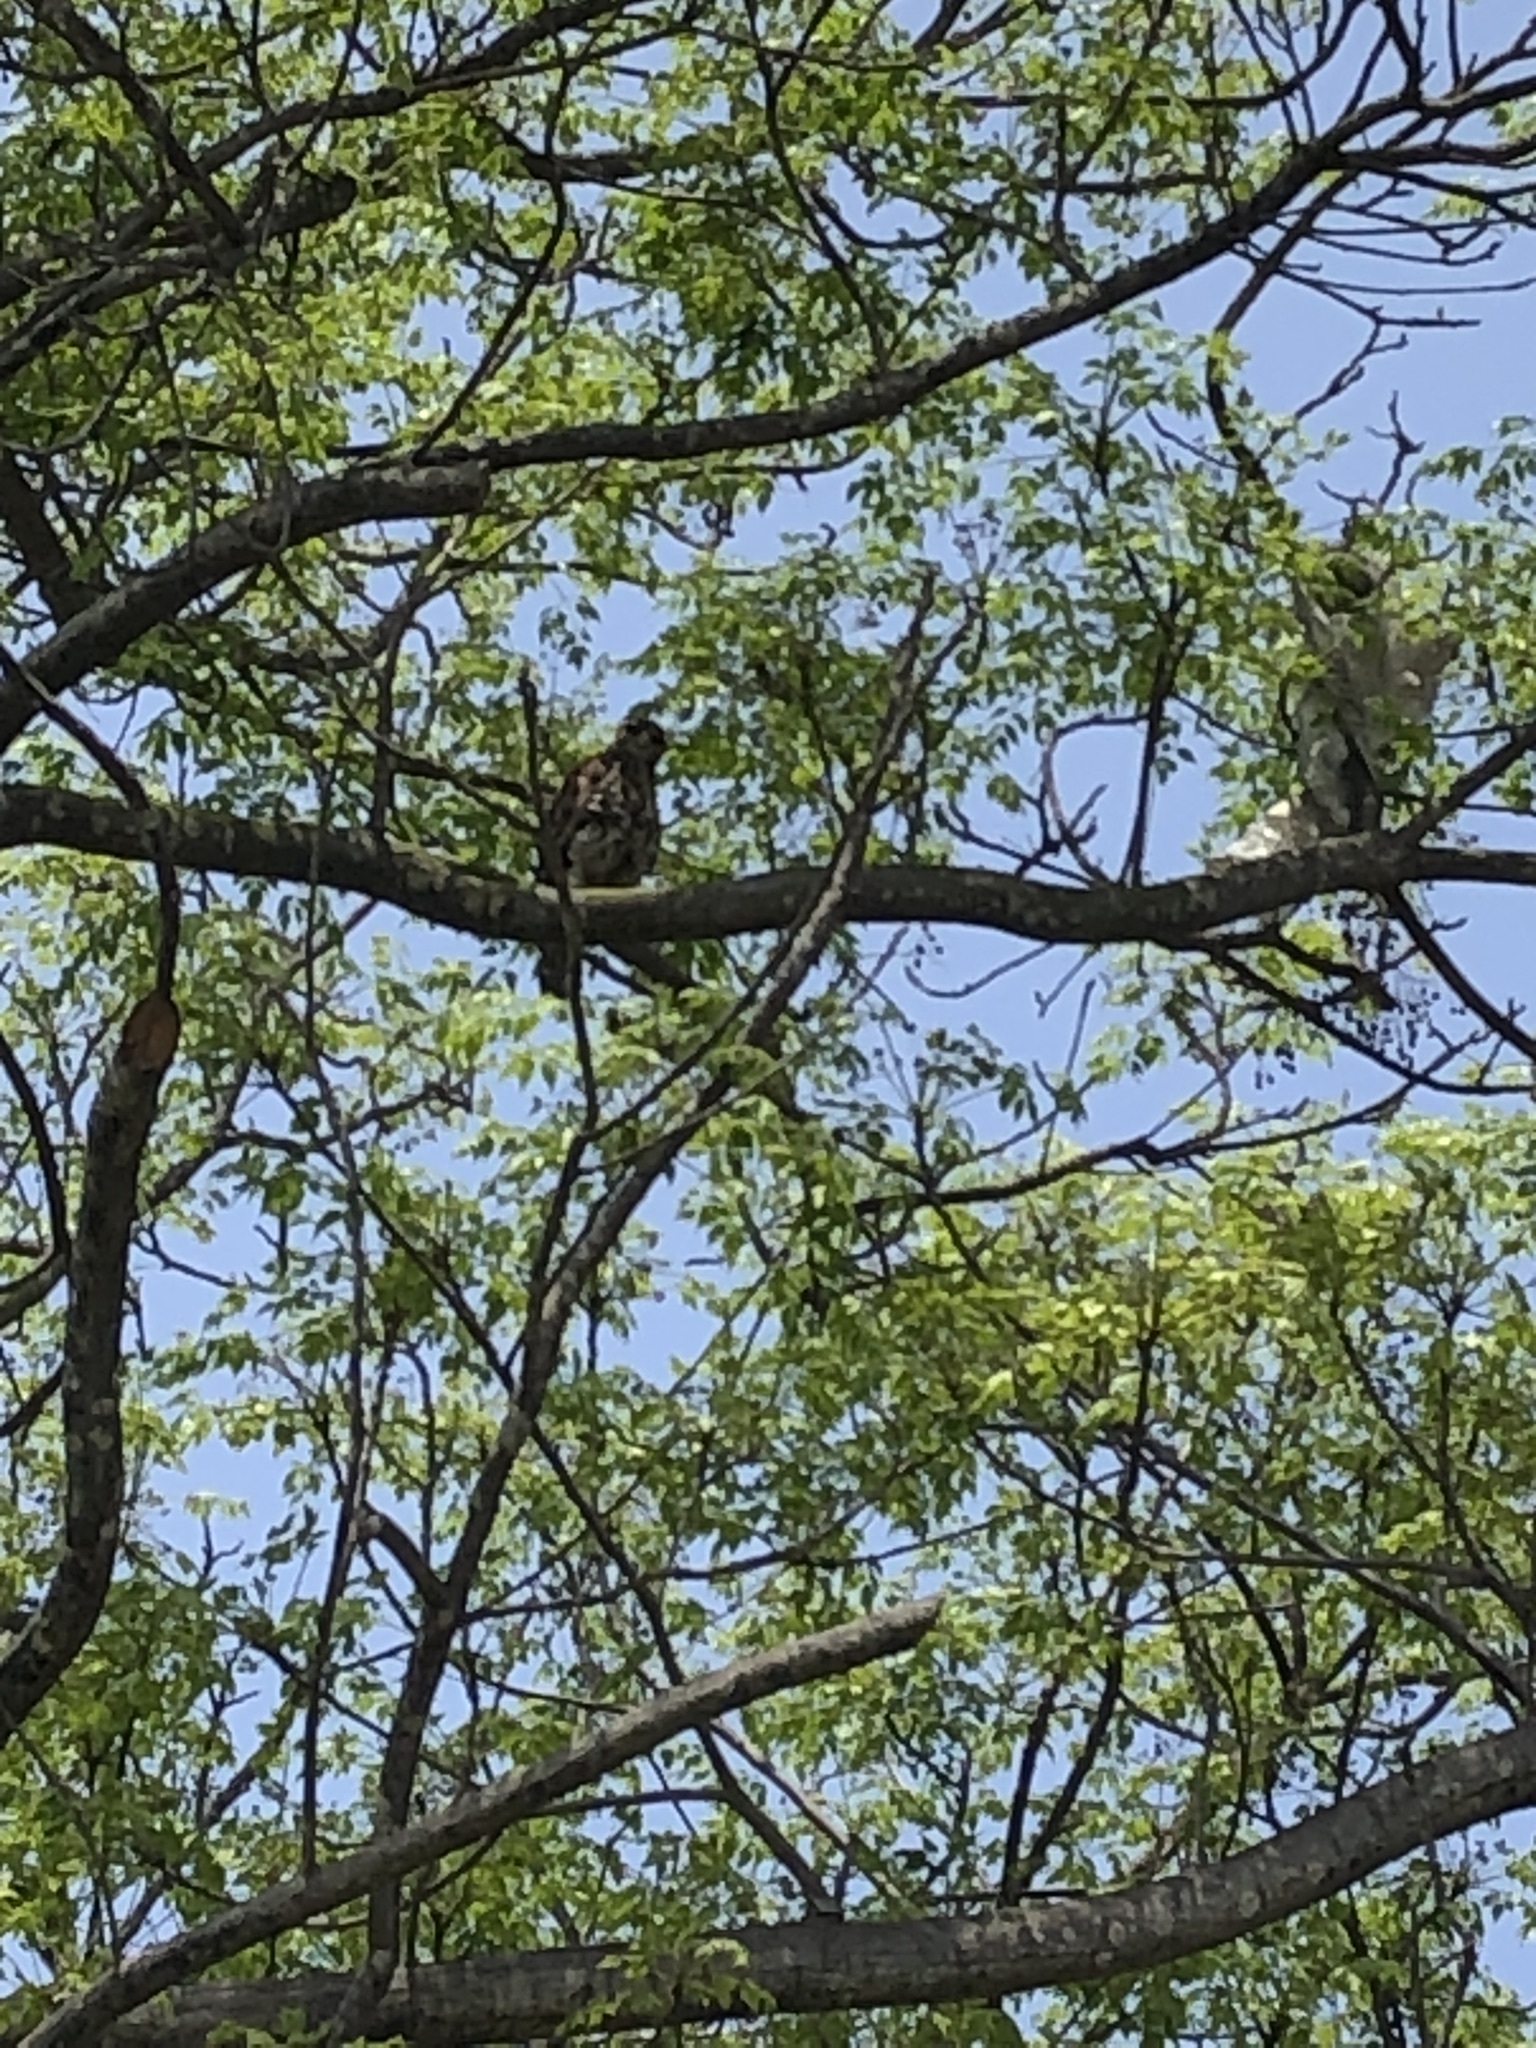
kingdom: Animalia
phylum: Chordata
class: Aves
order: Accipitriformes
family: Accipitridae
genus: Parabuteo
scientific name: Parabuteo unicinctus
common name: Harris's hawk
